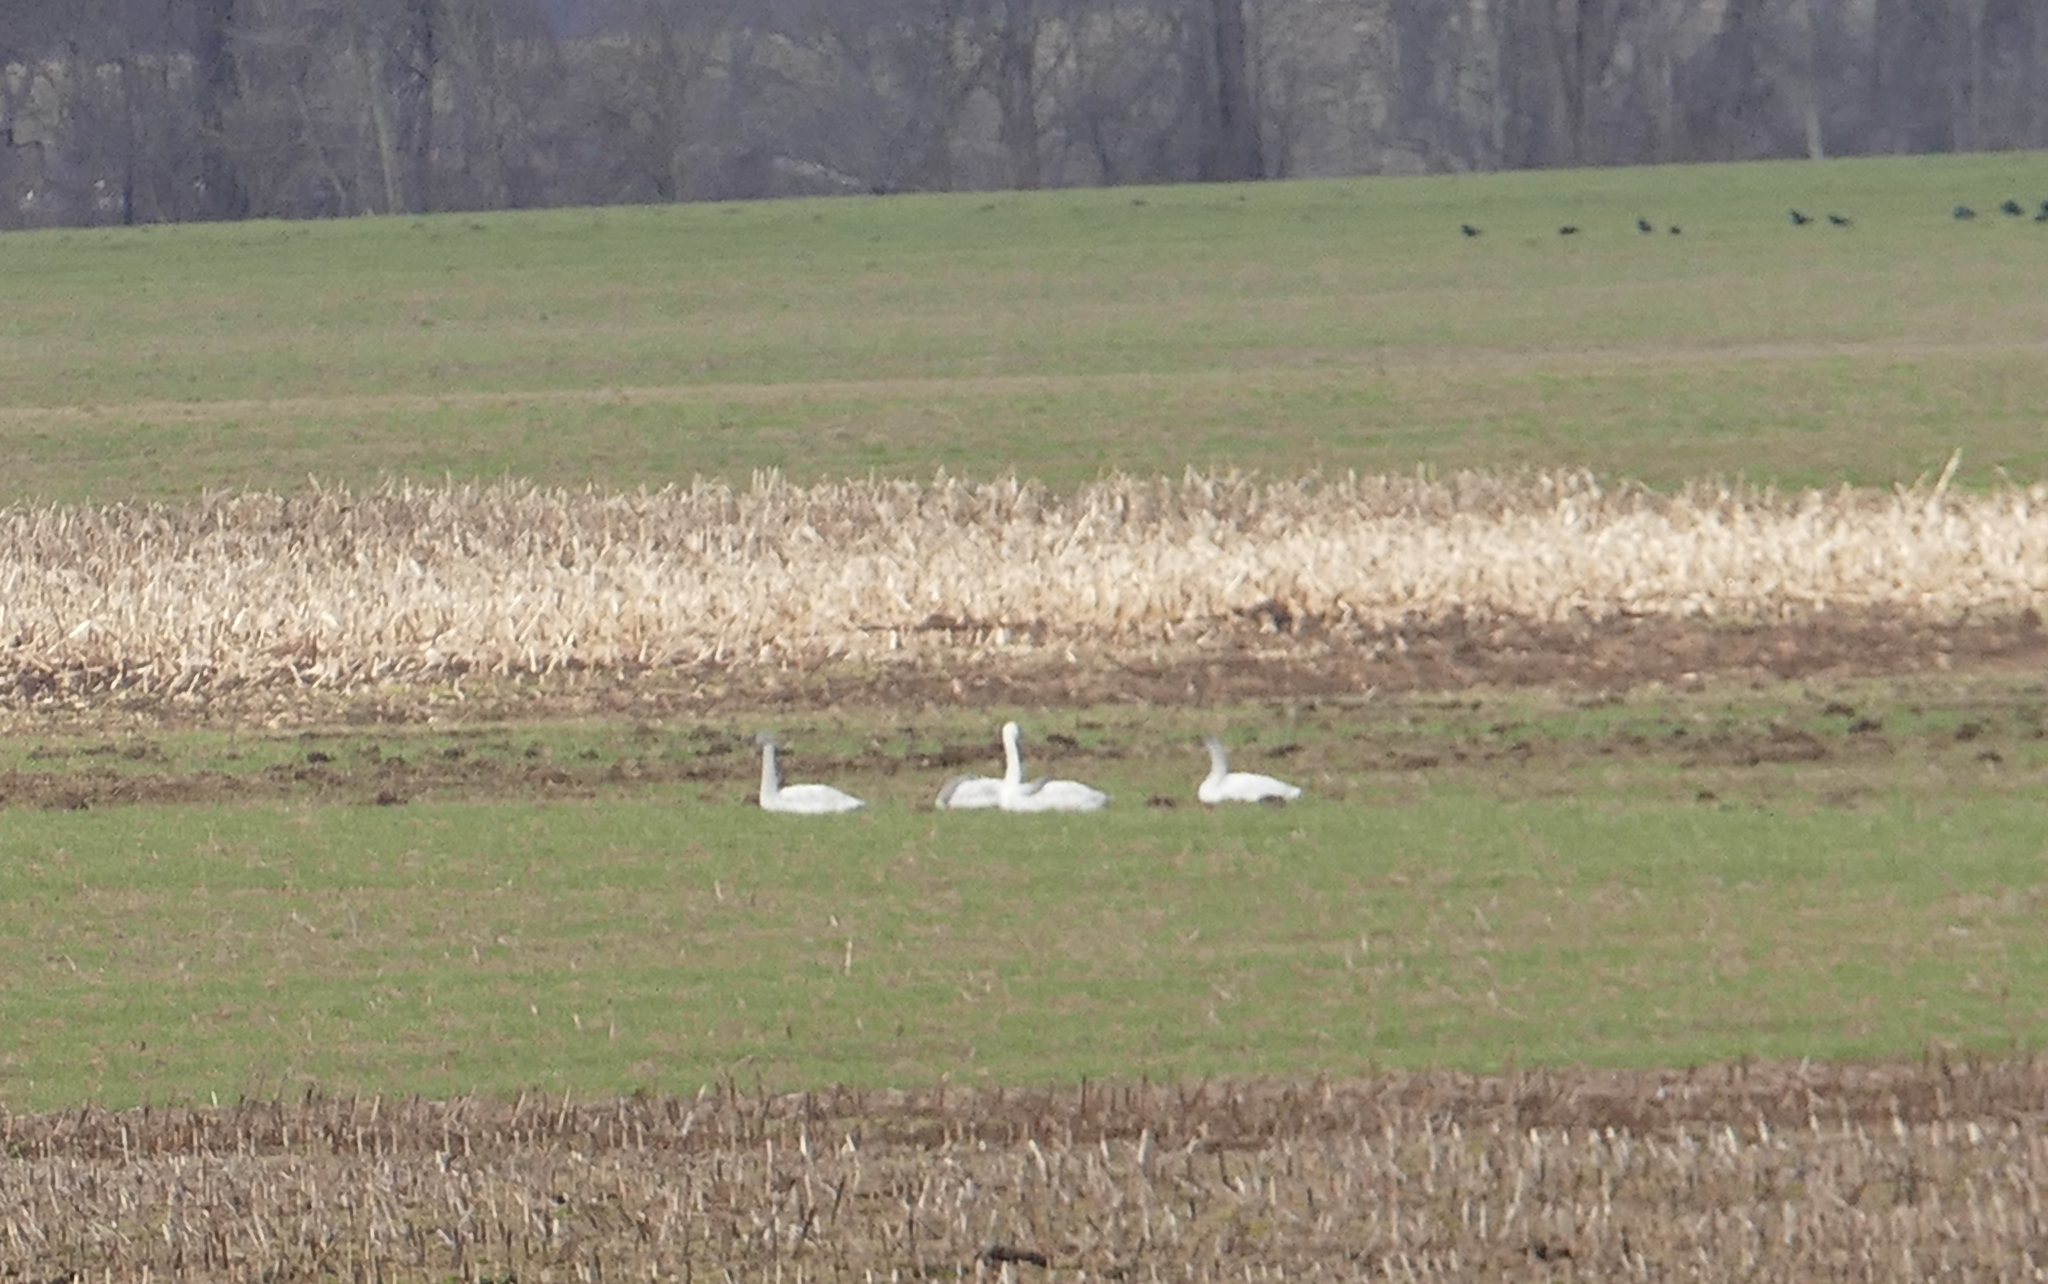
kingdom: Animalia
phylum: Chordata
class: Aves
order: Anseriformes
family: Anatidae
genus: Cygnus
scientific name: Cygnus columbianus
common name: Tundra swan
